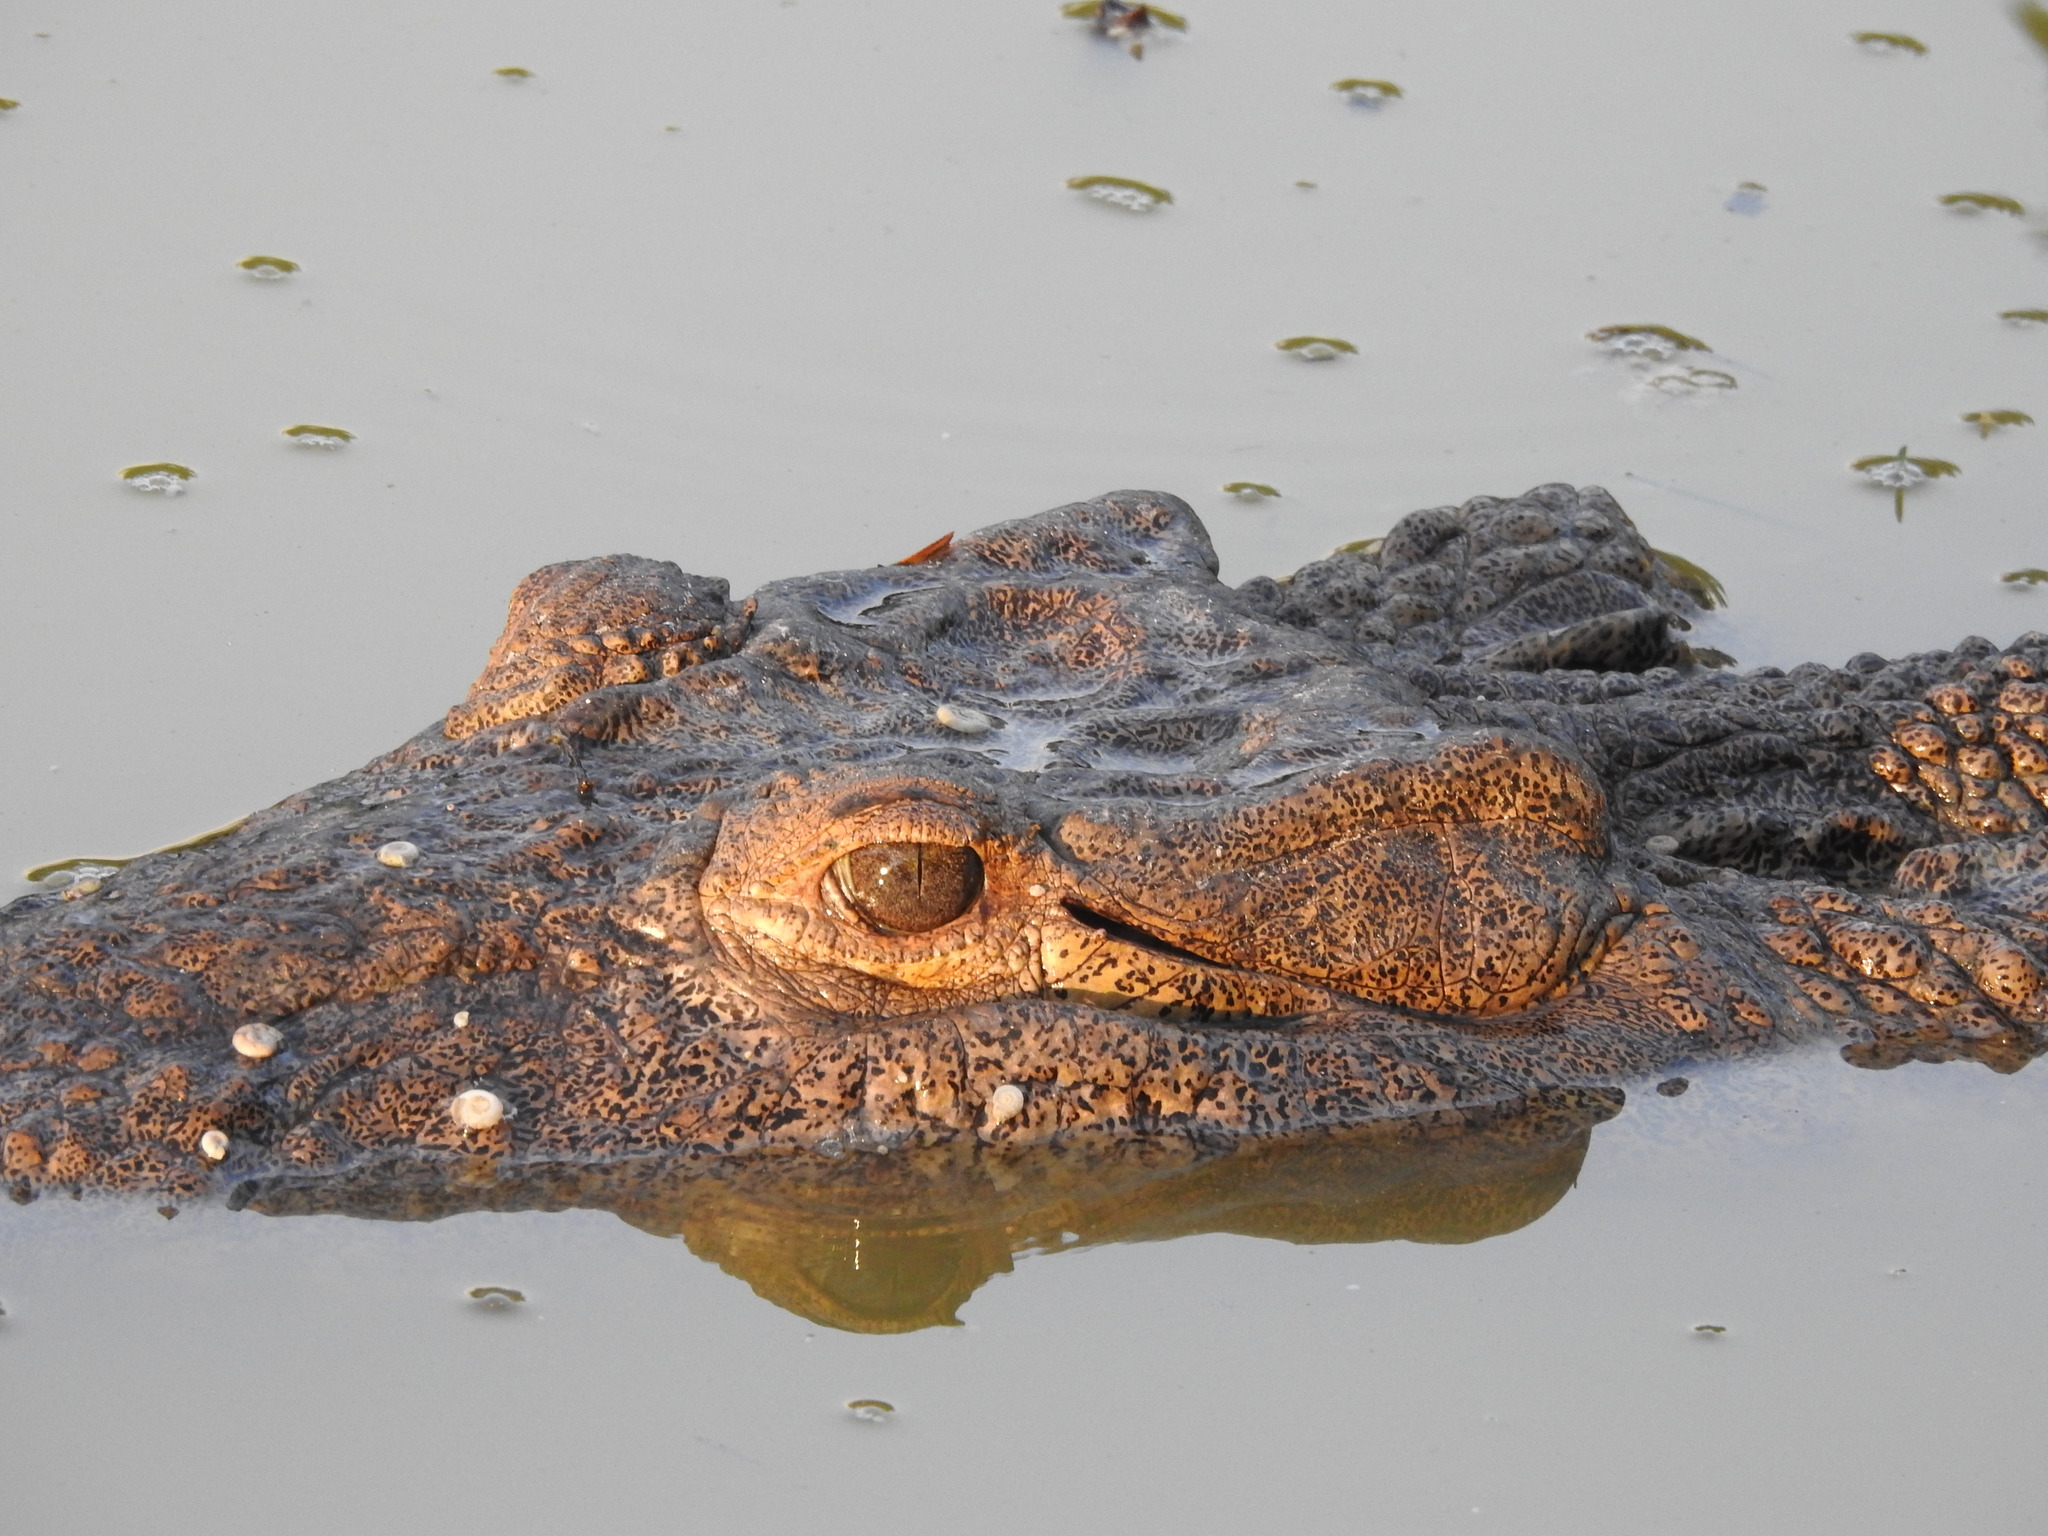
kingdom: Animalia
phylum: Chordata
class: Crocodylia
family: Crocodylidae
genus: Crocodylus
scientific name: Crocodylus acutus
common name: American crocodile
